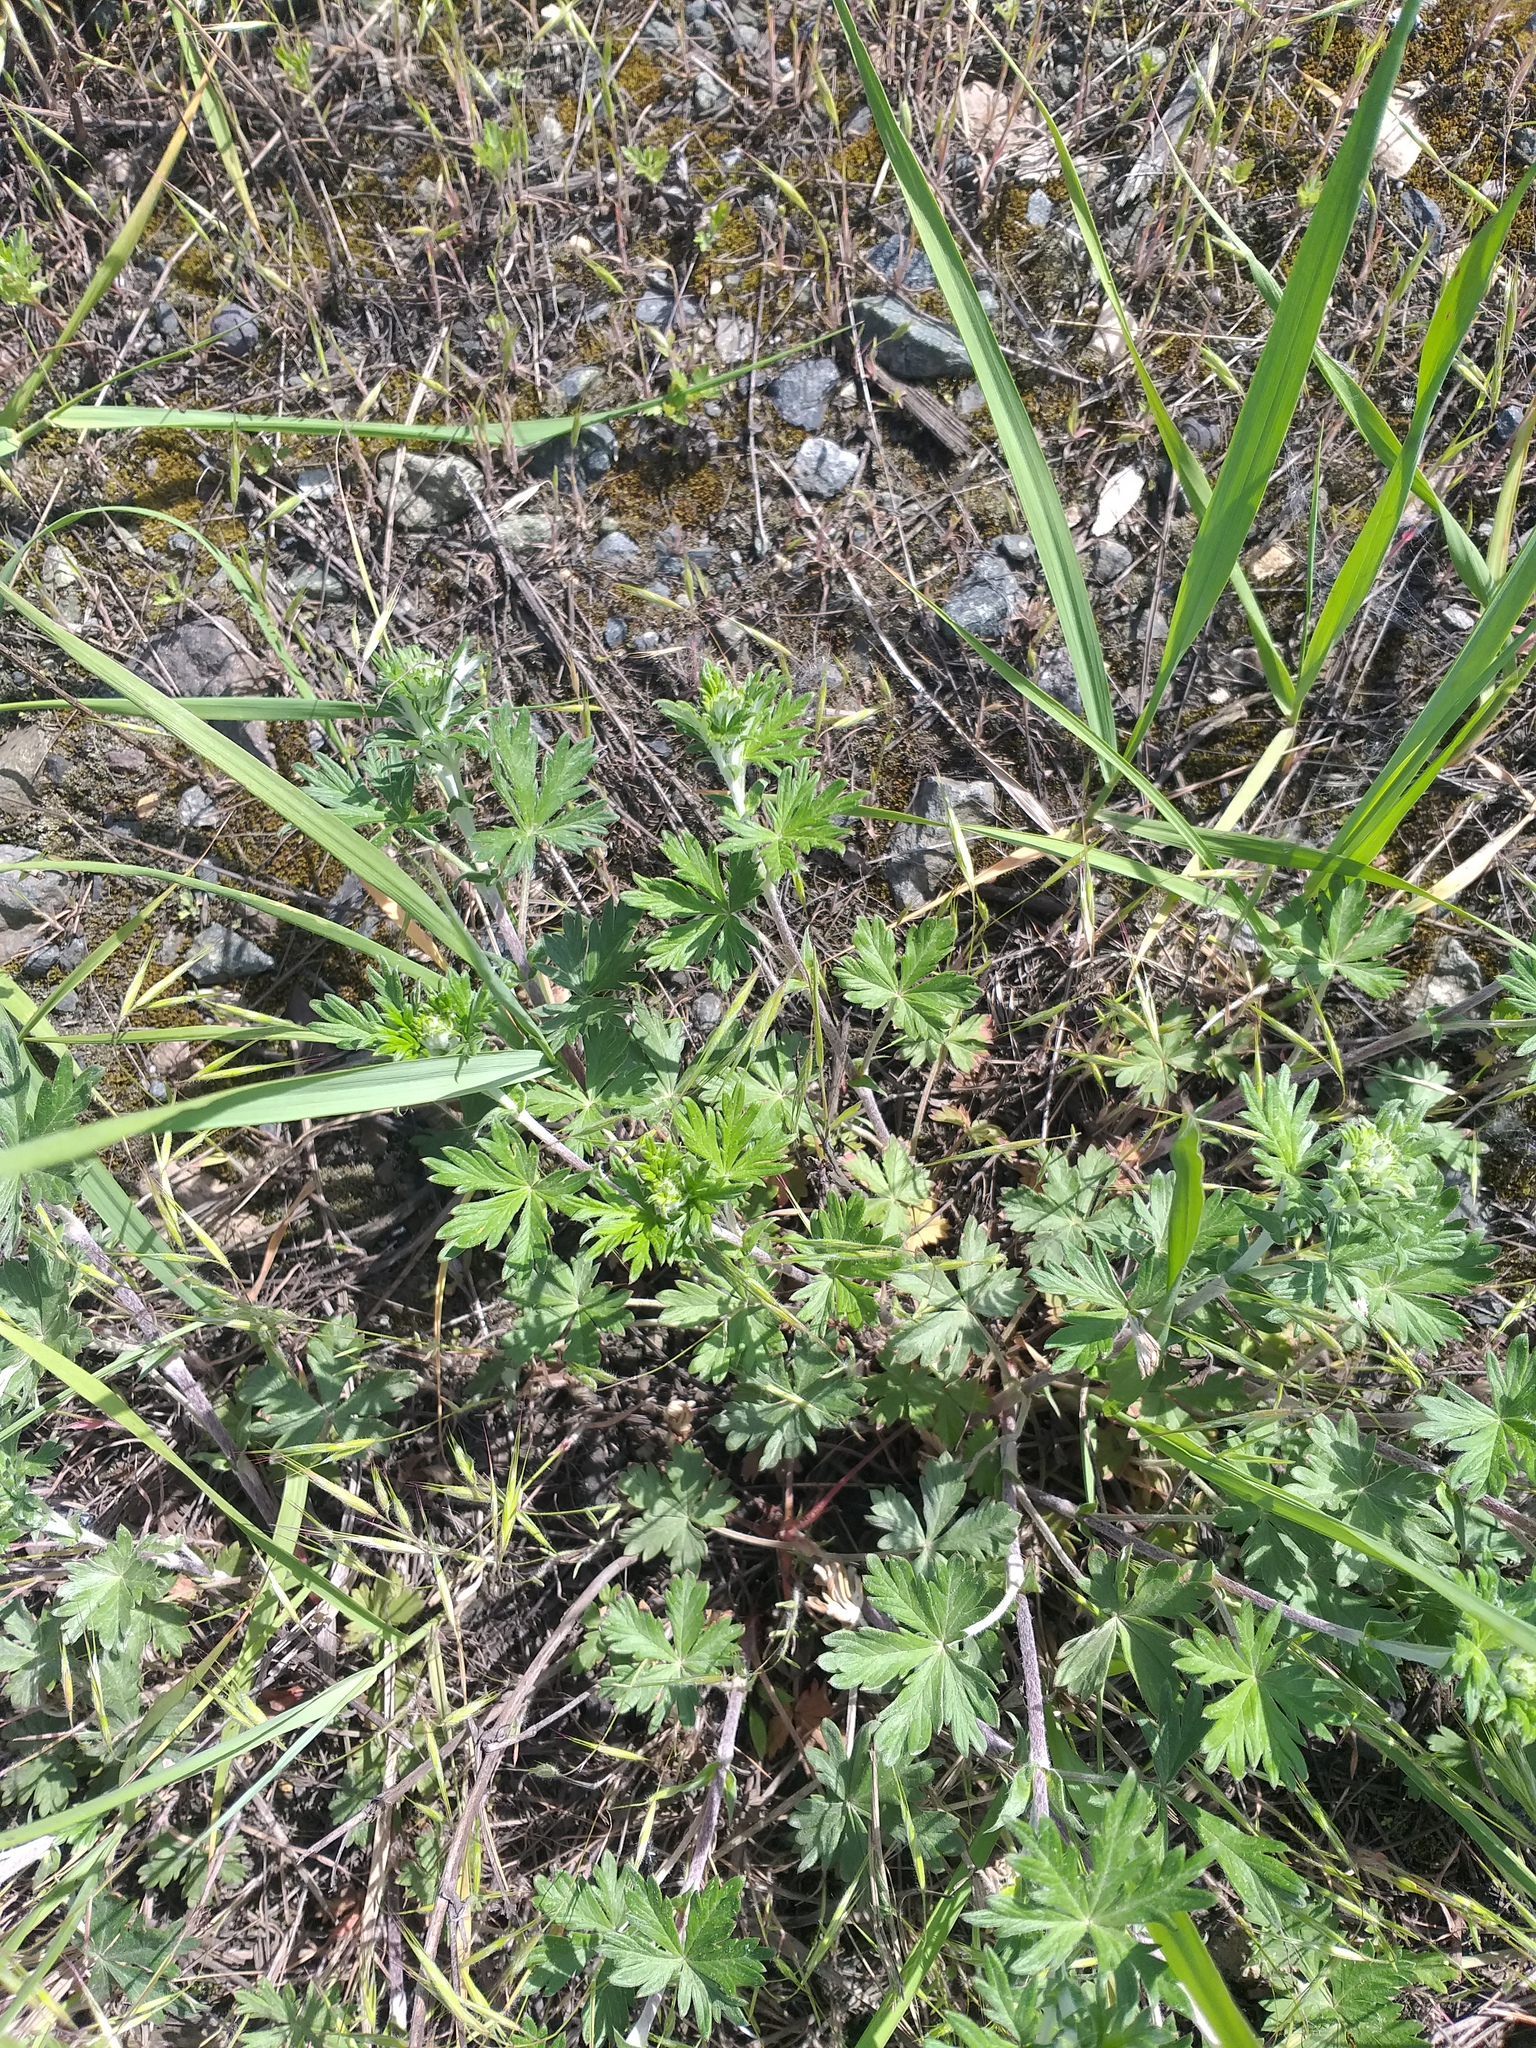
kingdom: Plantae
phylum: Tracheophyta
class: Magnoliopsida
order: Rosales
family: Rosaceae
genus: Potentilla
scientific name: Potentilla argentea
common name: Hoary cinquefoil
